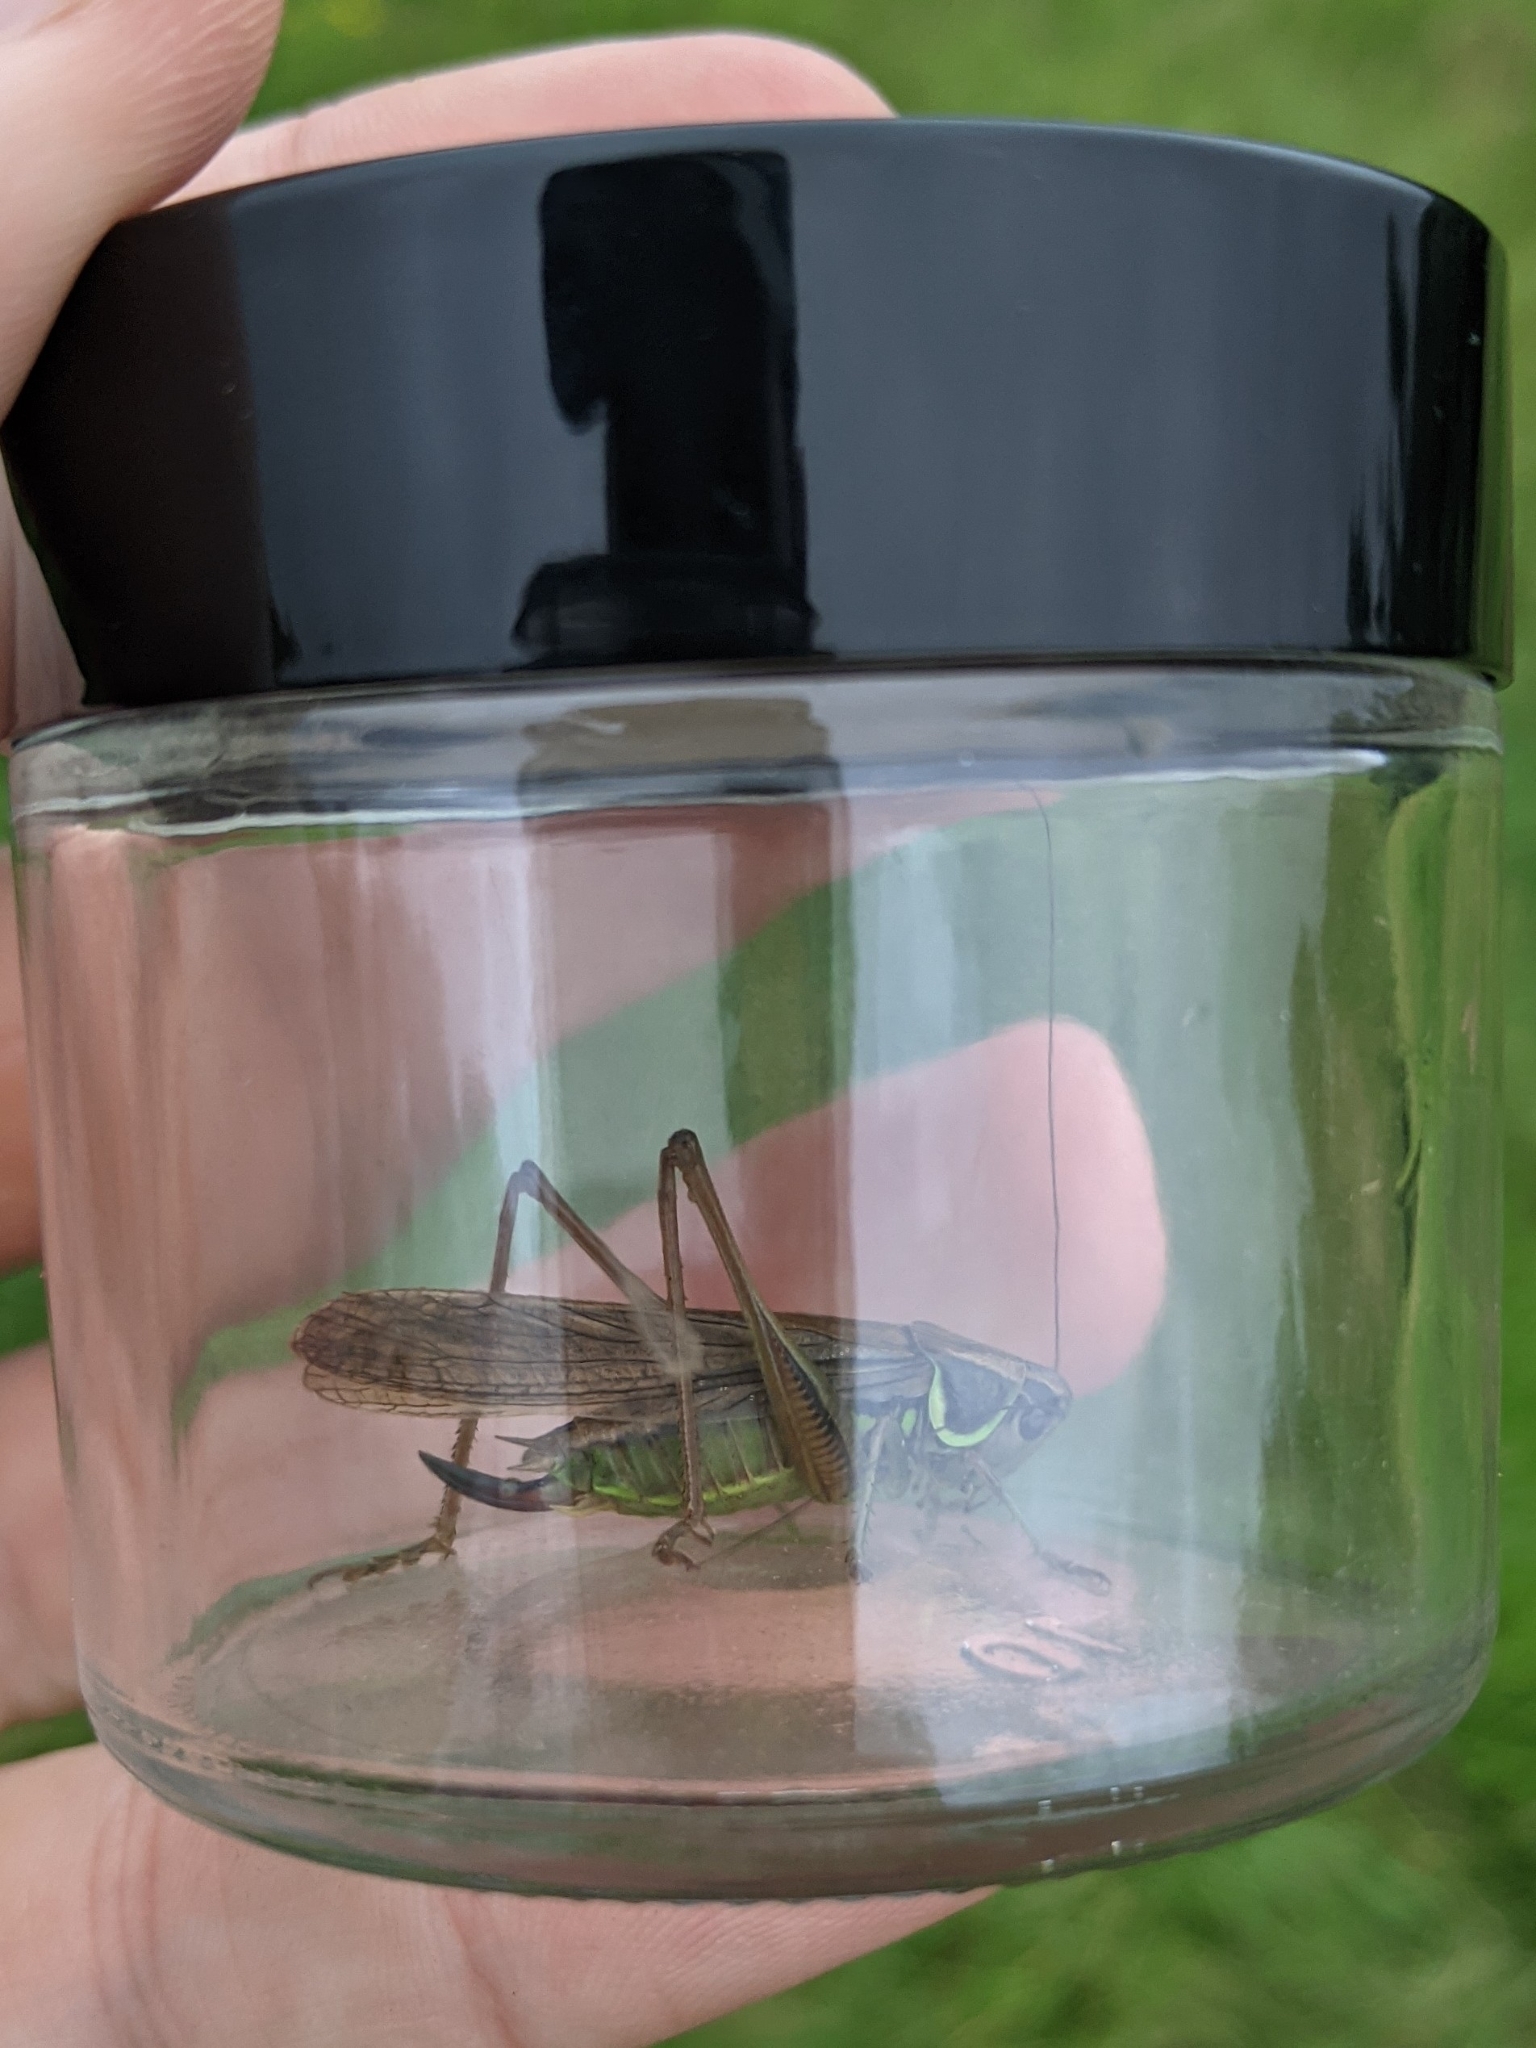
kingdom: Animalia
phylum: Arthropoda
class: Insecta
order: Orthoptera
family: Tettigoniidae
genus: Roeseliana
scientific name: Roeseliana roeselii
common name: Roesel's bush cricket
